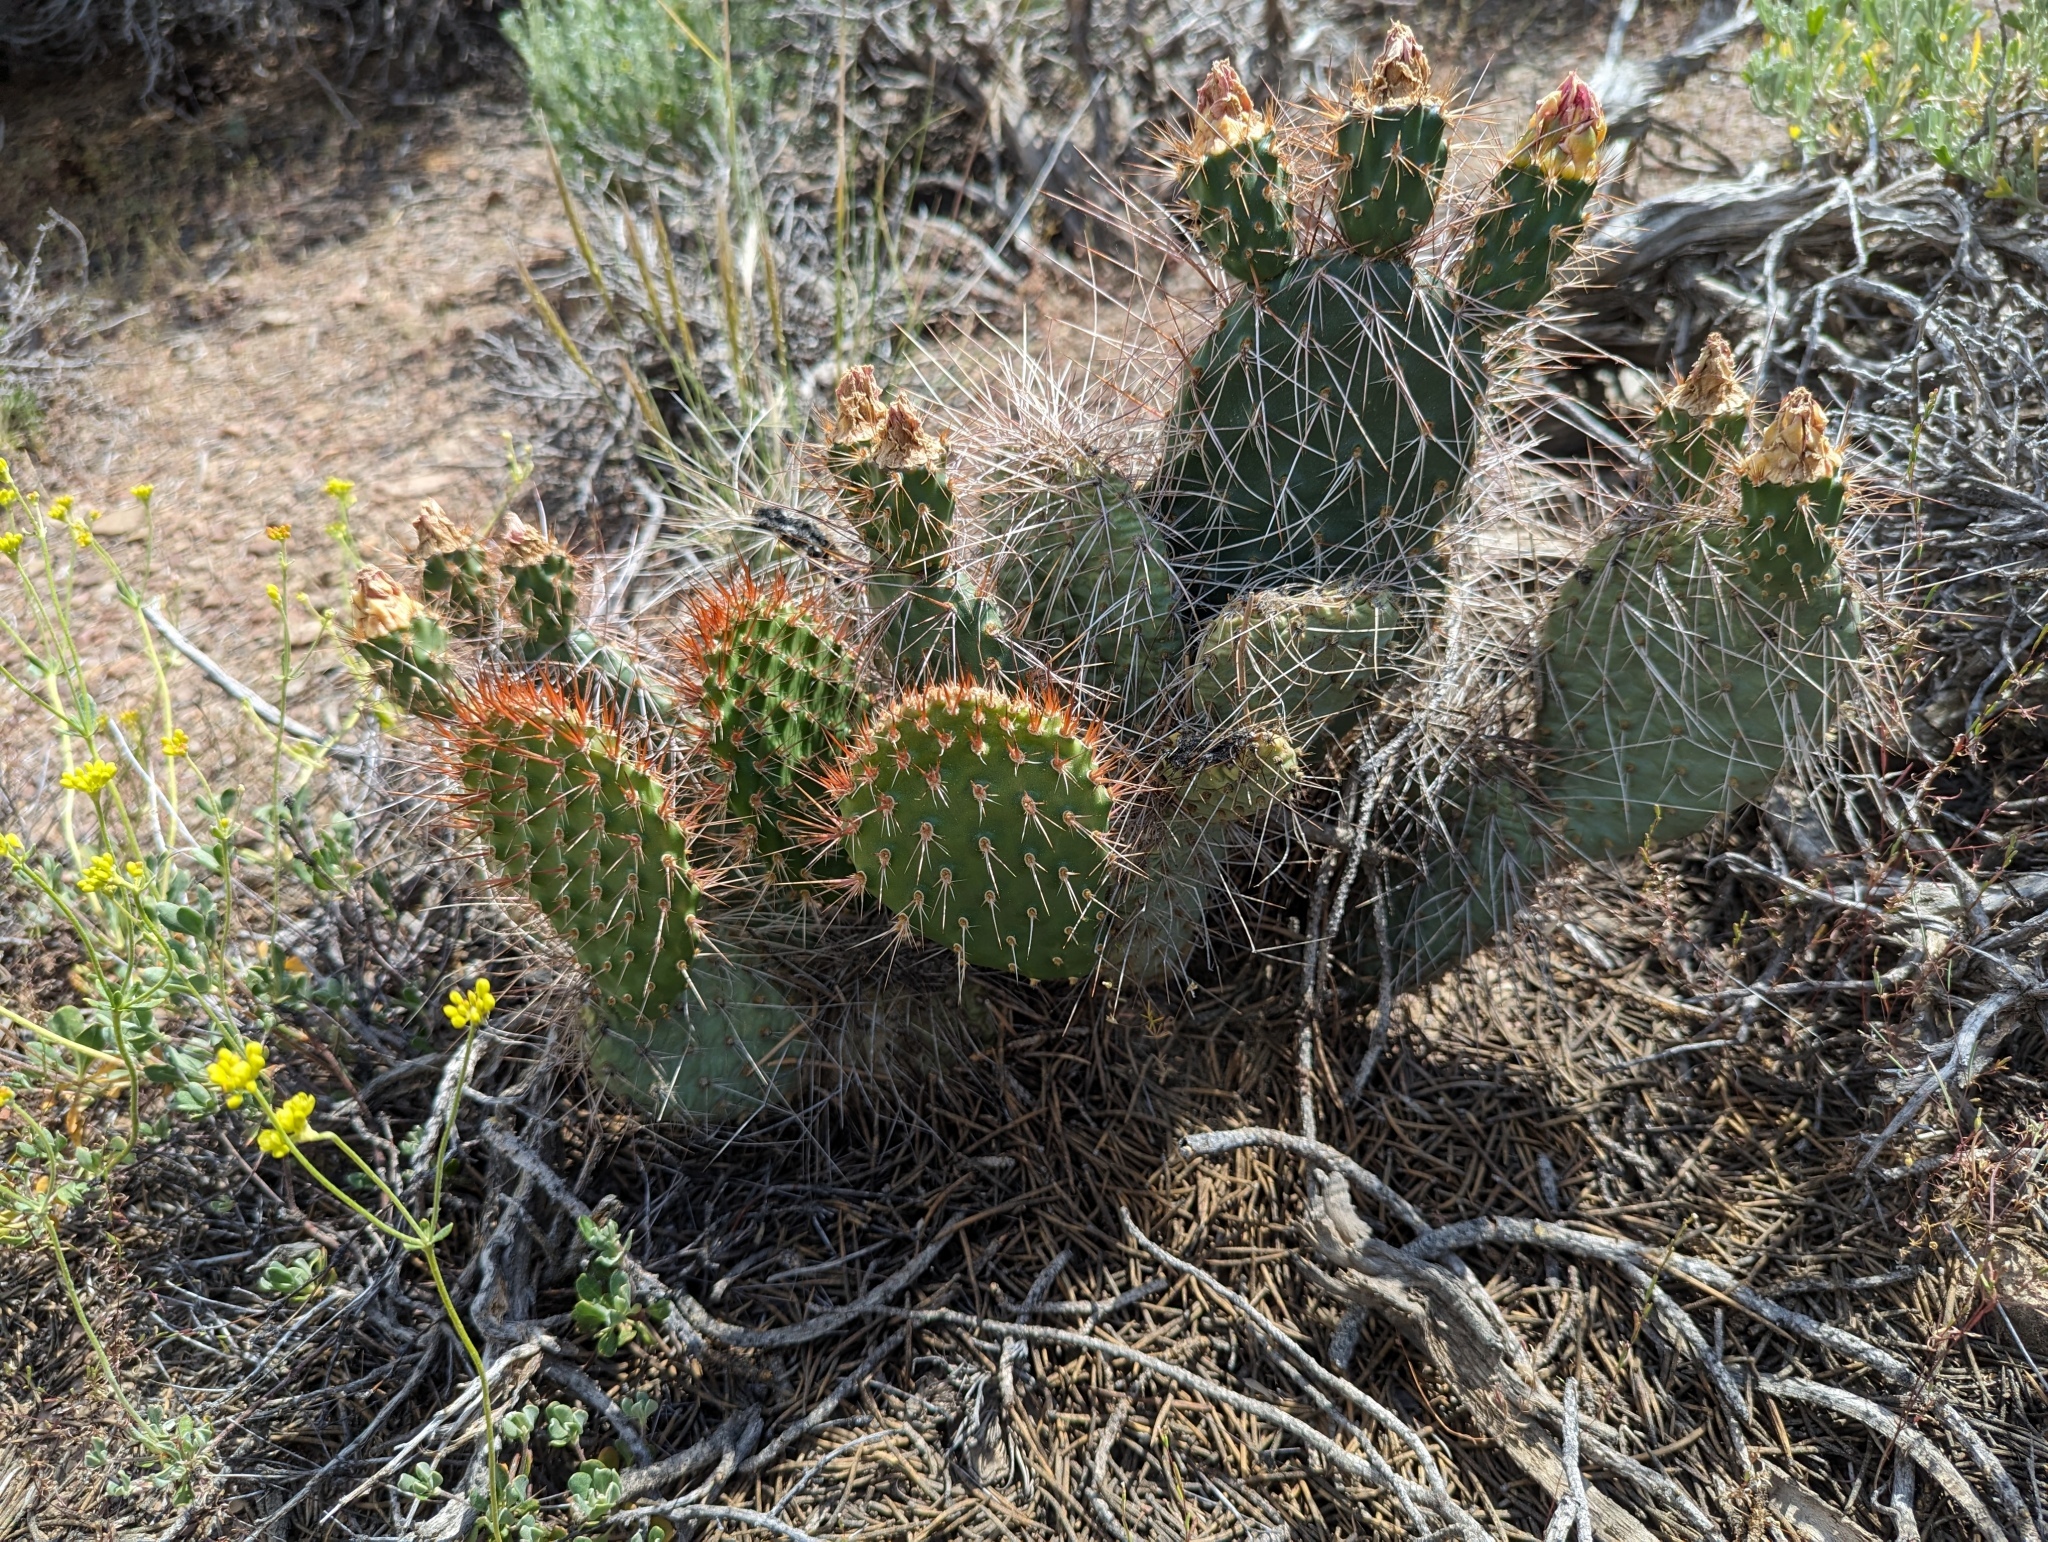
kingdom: Plantae
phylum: Tracheophyta
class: Magnoliopsida
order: Caryophyllales
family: Cactaceae
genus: Opuntia
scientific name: Opuntia polyacantha
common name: Plains prickly-pear
